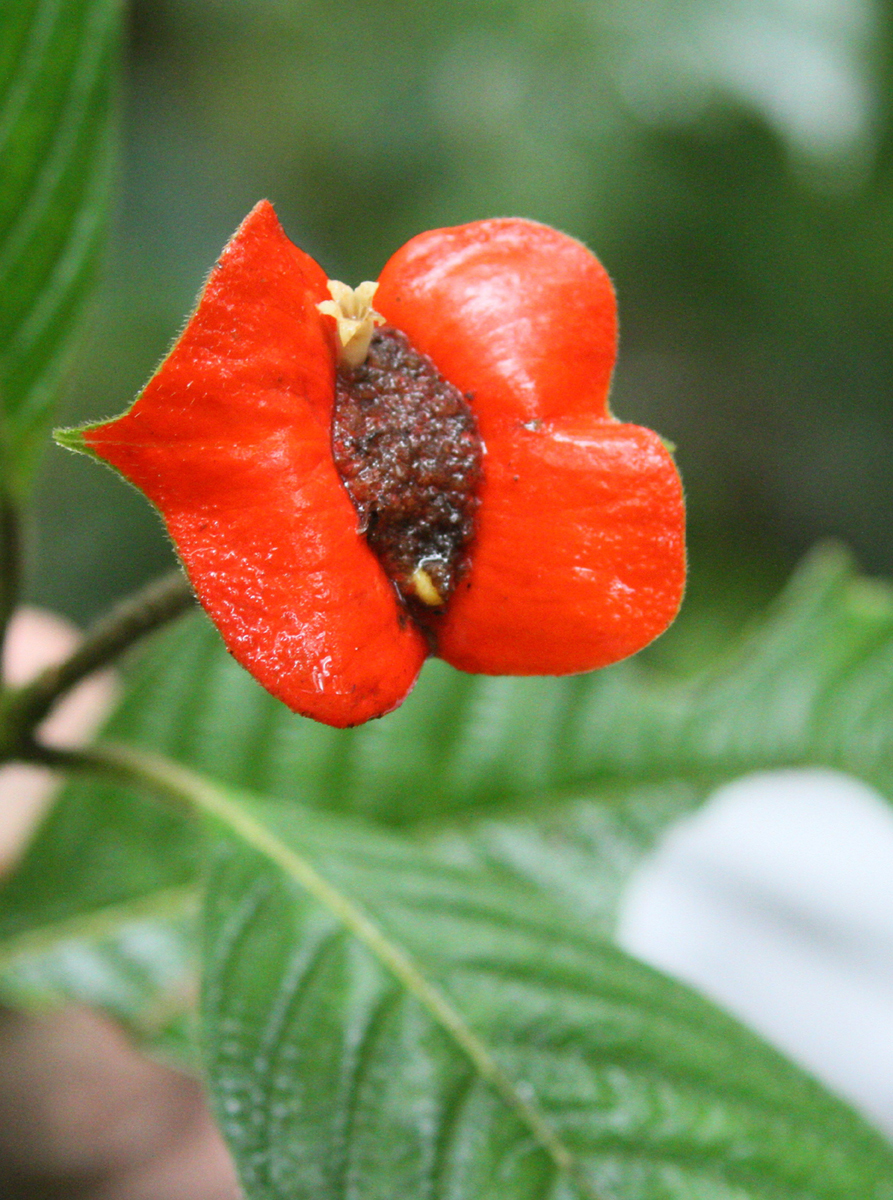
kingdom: Plantae
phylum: Tracheophyta
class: Magnoliopsida
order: Gentianales
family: Rubiaceae
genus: Palicourea
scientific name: Palicourea tomentosa
